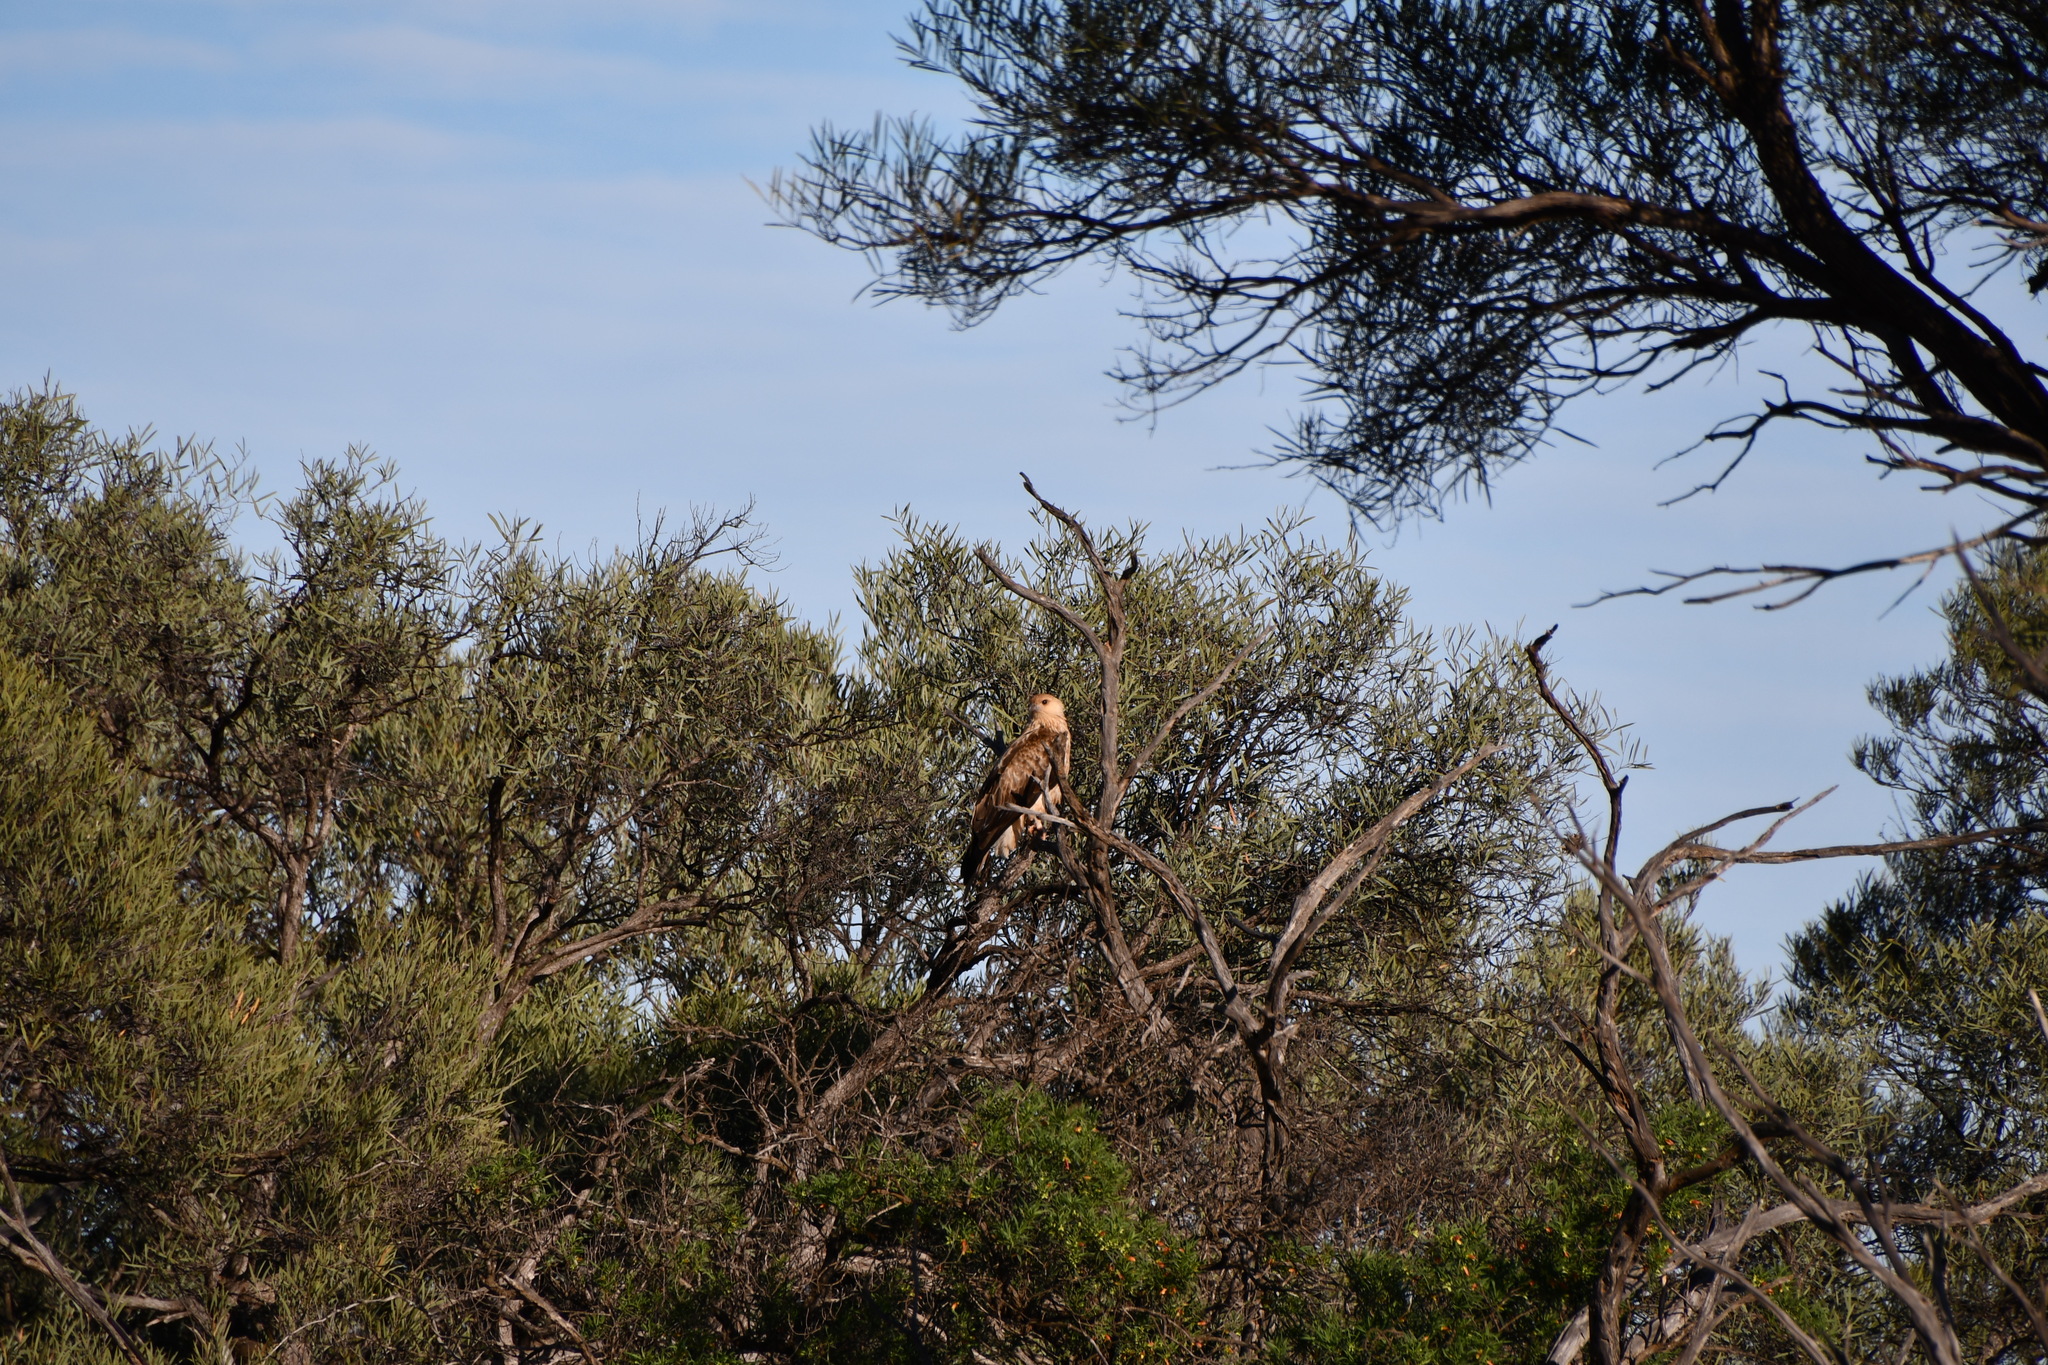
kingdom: Animalia
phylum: Chordata
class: Aves
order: Accipitriformes
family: Accipitridae
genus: Haliastur
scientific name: Haliastur sphenurus
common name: Whistling kite
